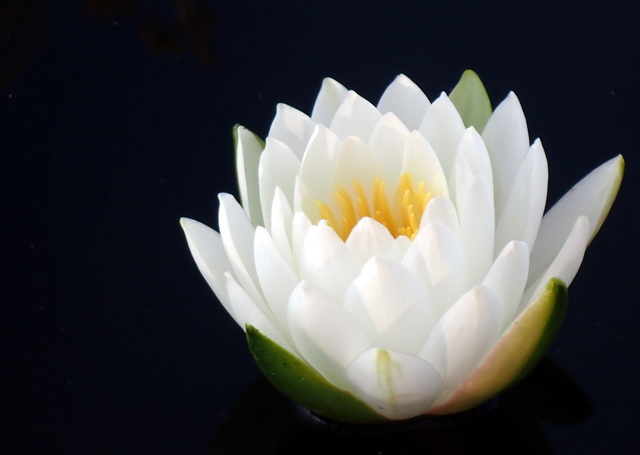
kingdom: Plantae
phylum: Tracheophyta
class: Magnoliopsida
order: Nymphaeales
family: Nymphaeaceae
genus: Nymphaea
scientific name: Nymphaea odorata
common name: Fragrant water-lily
